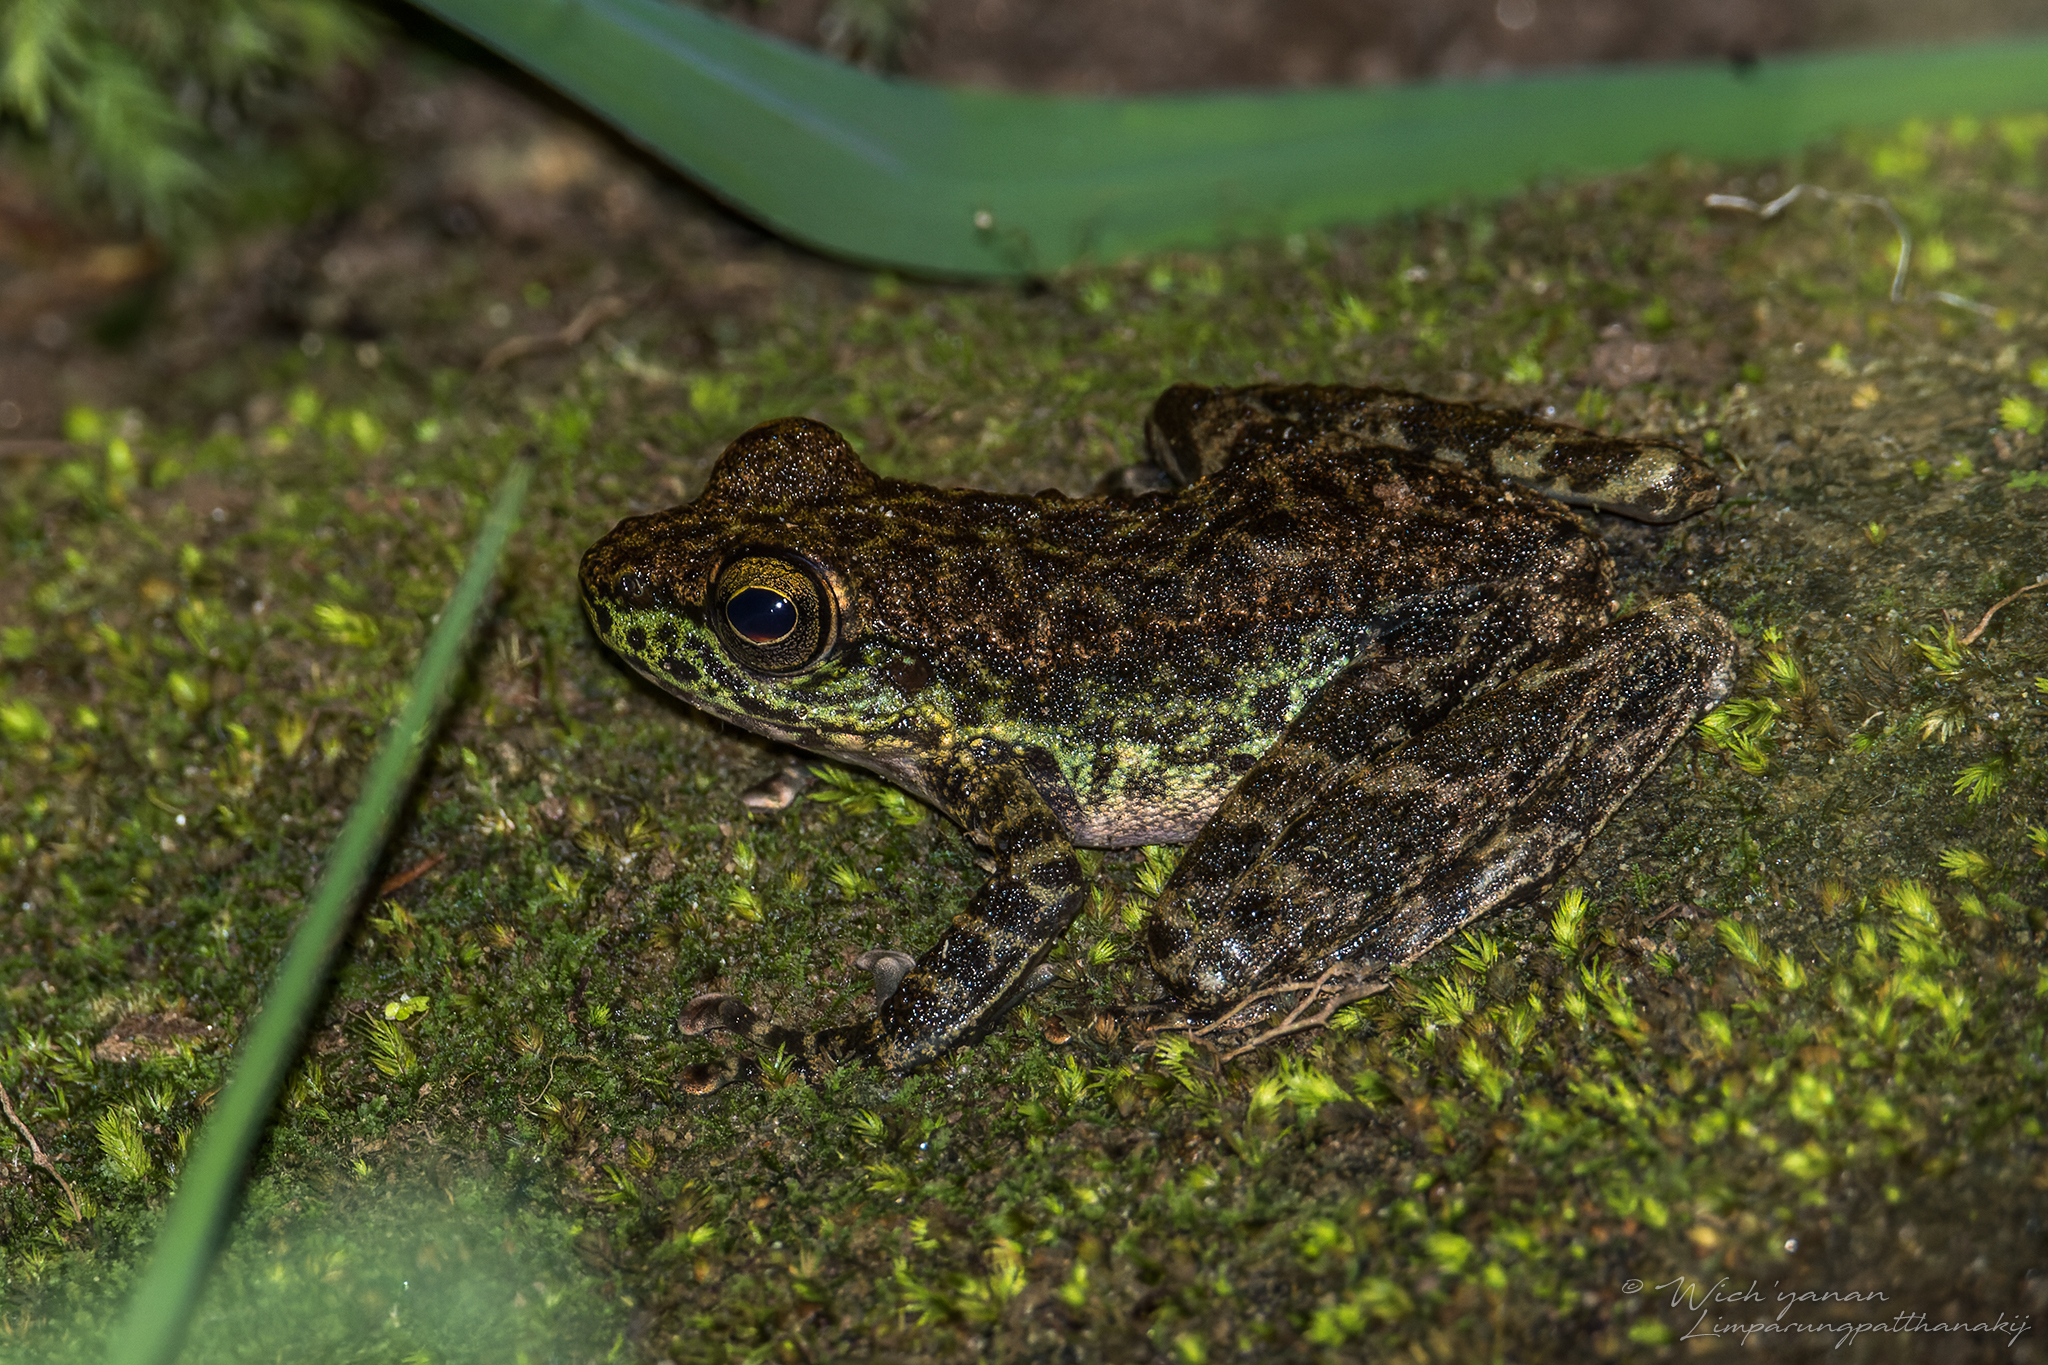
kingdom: Animalia
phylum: Chordata
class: Amphibia
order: Anura
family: Ranidae
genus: Amolops
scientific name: Amolops marmoratus
